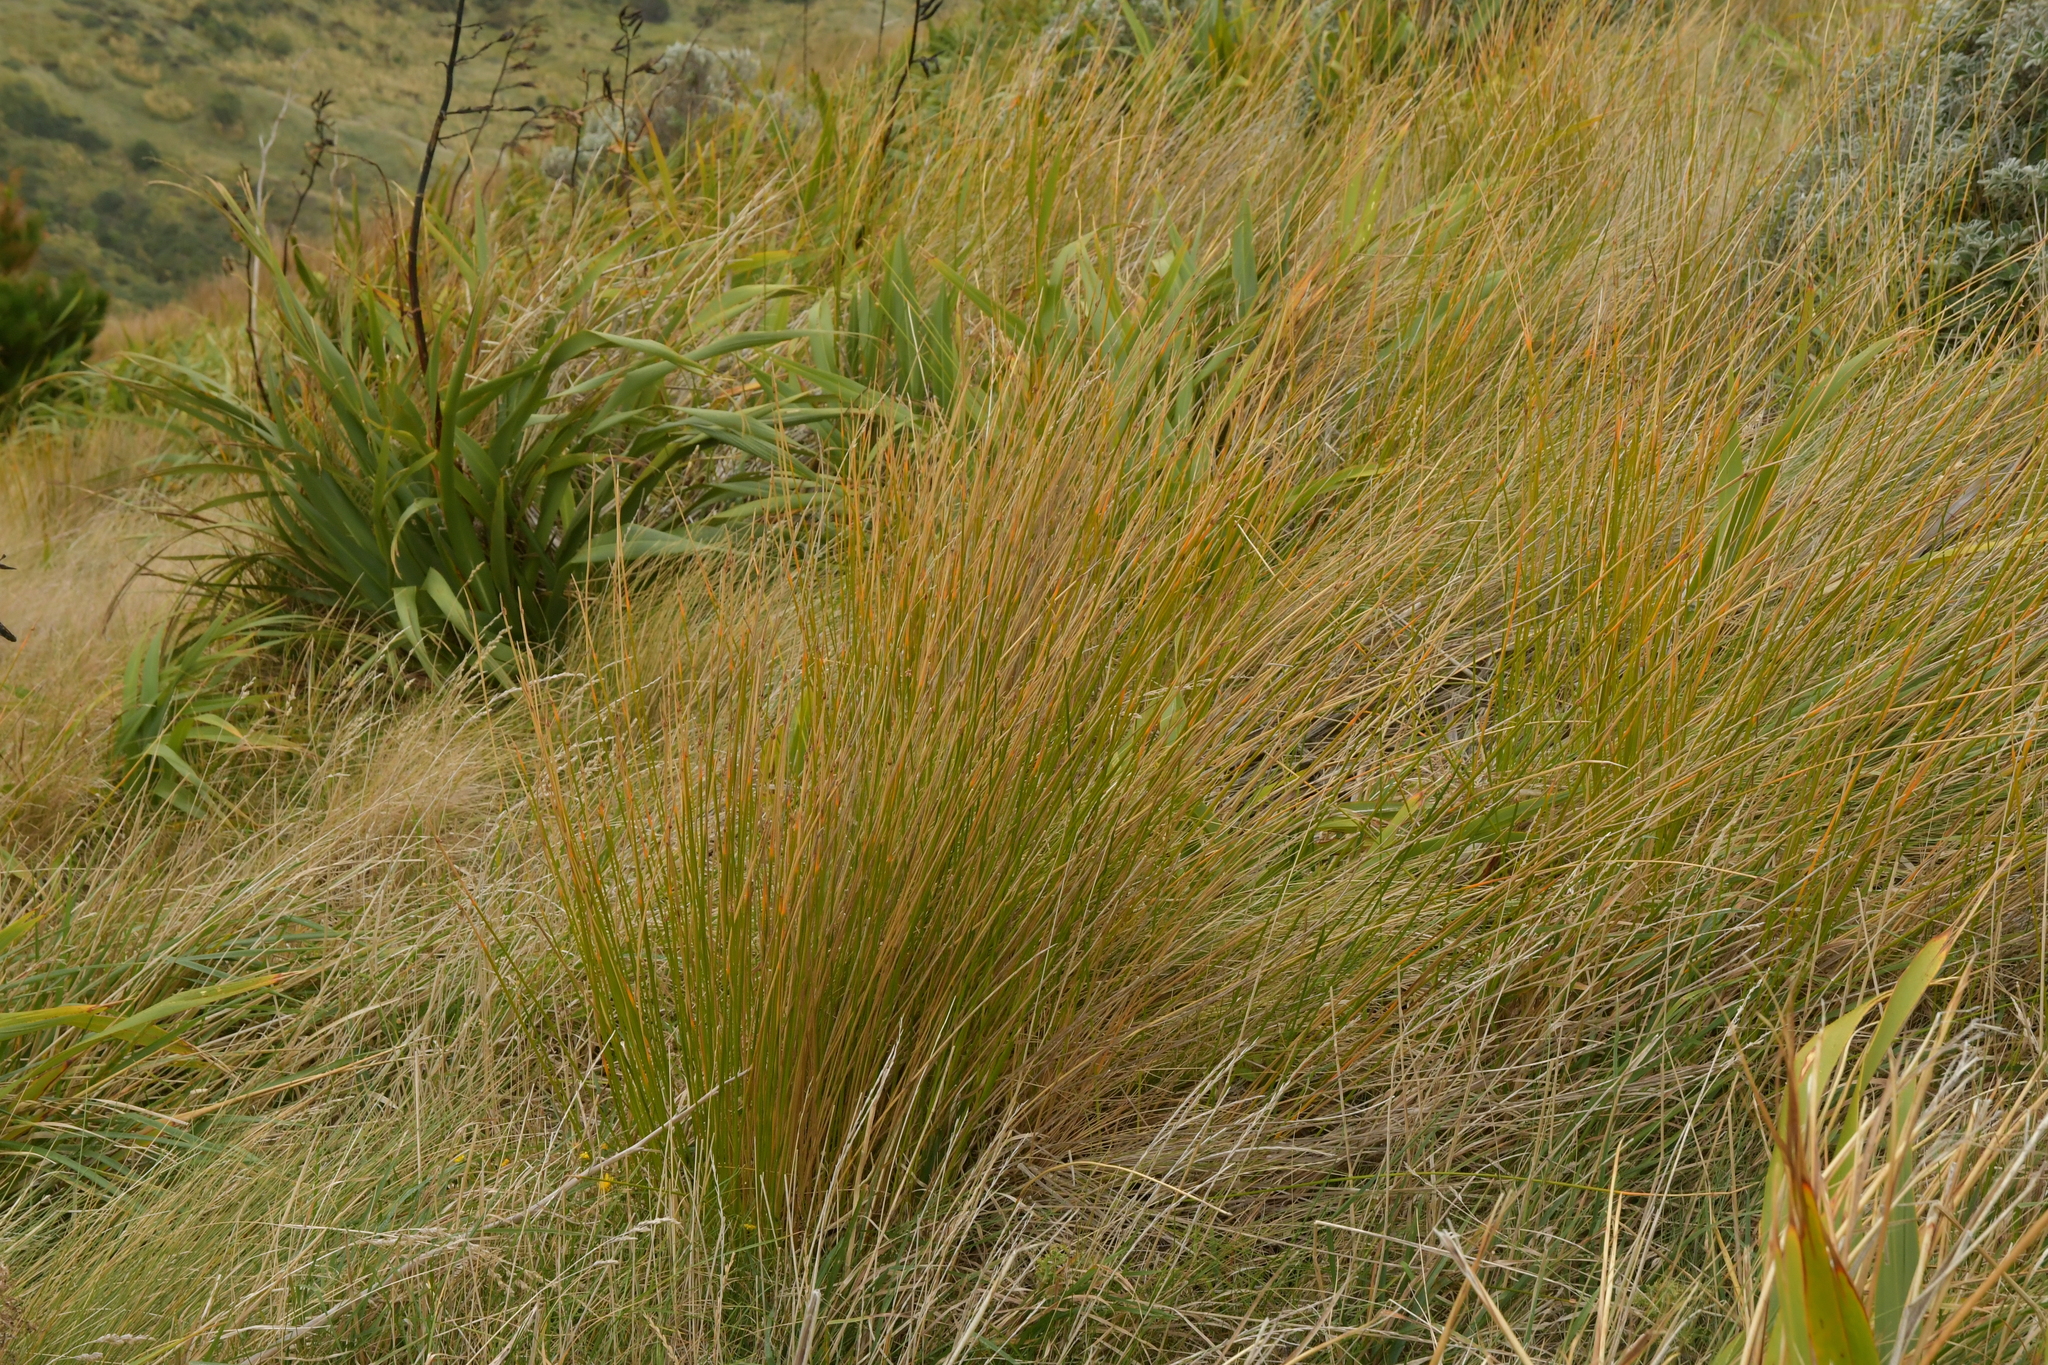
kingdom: Plantae
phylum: Tracheophyta
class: Liliopsida
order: Poales
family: Cyperaceae
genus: Ficinia
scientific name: Ficinia nodosa
